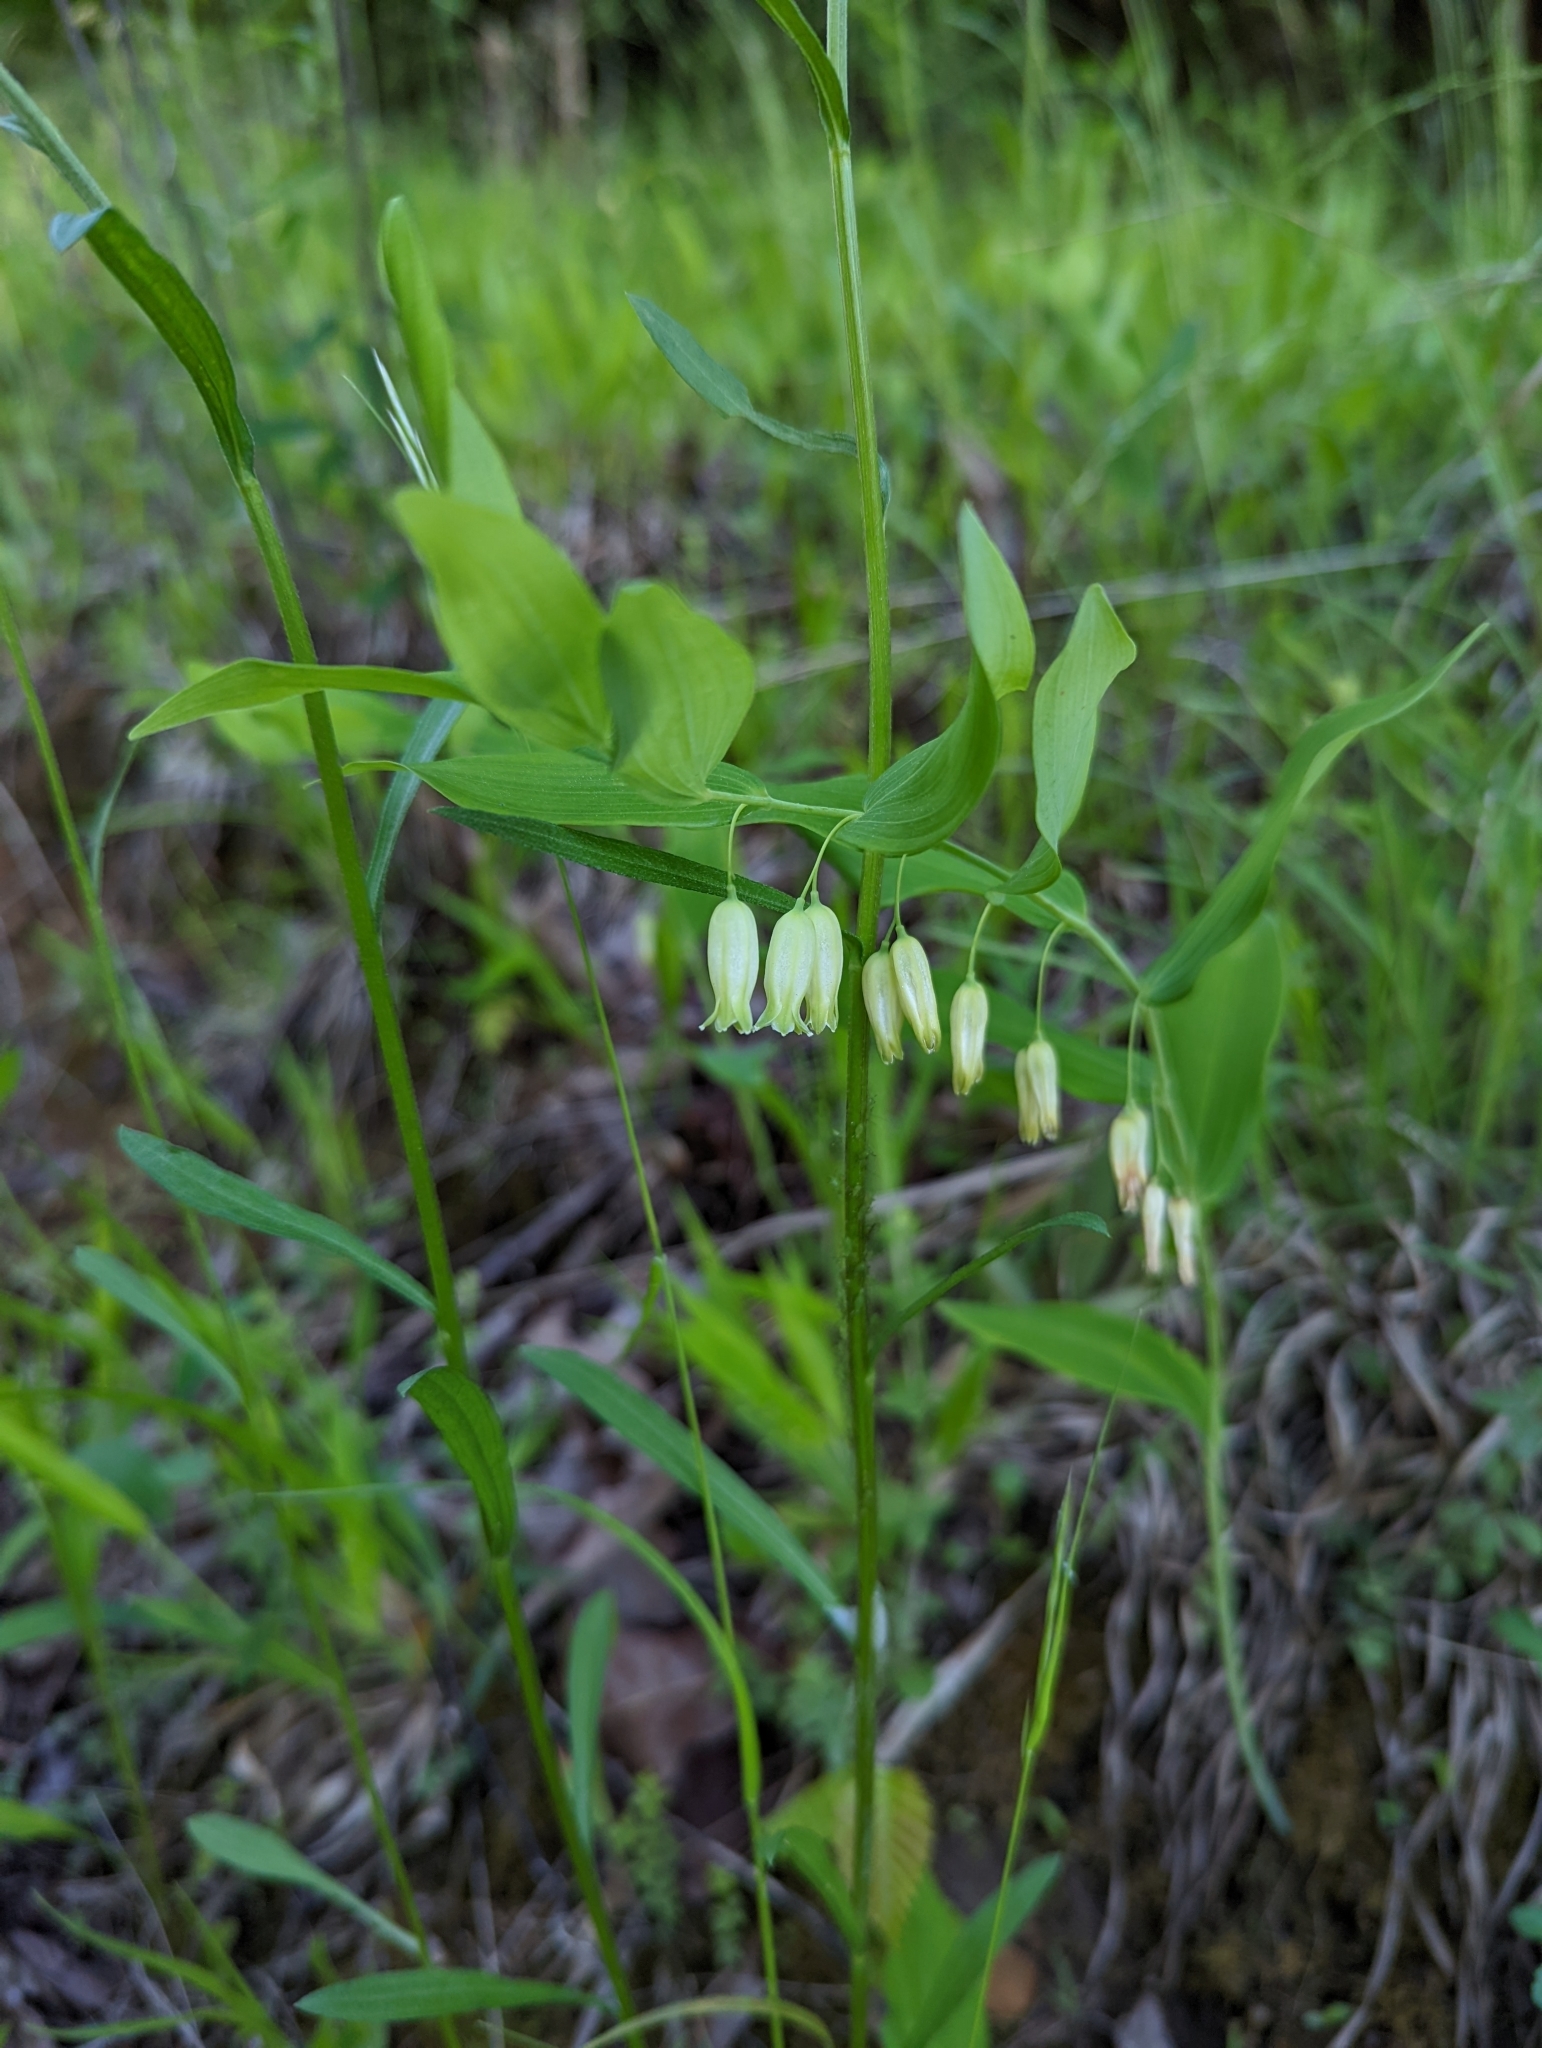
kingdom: Plantae
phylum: Tracheophyta
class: Liliopsida
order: Asparagales
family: Asparagaceae
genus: Polygonatum
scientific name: Polygonatum biflorum
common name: American solomon's-seal
